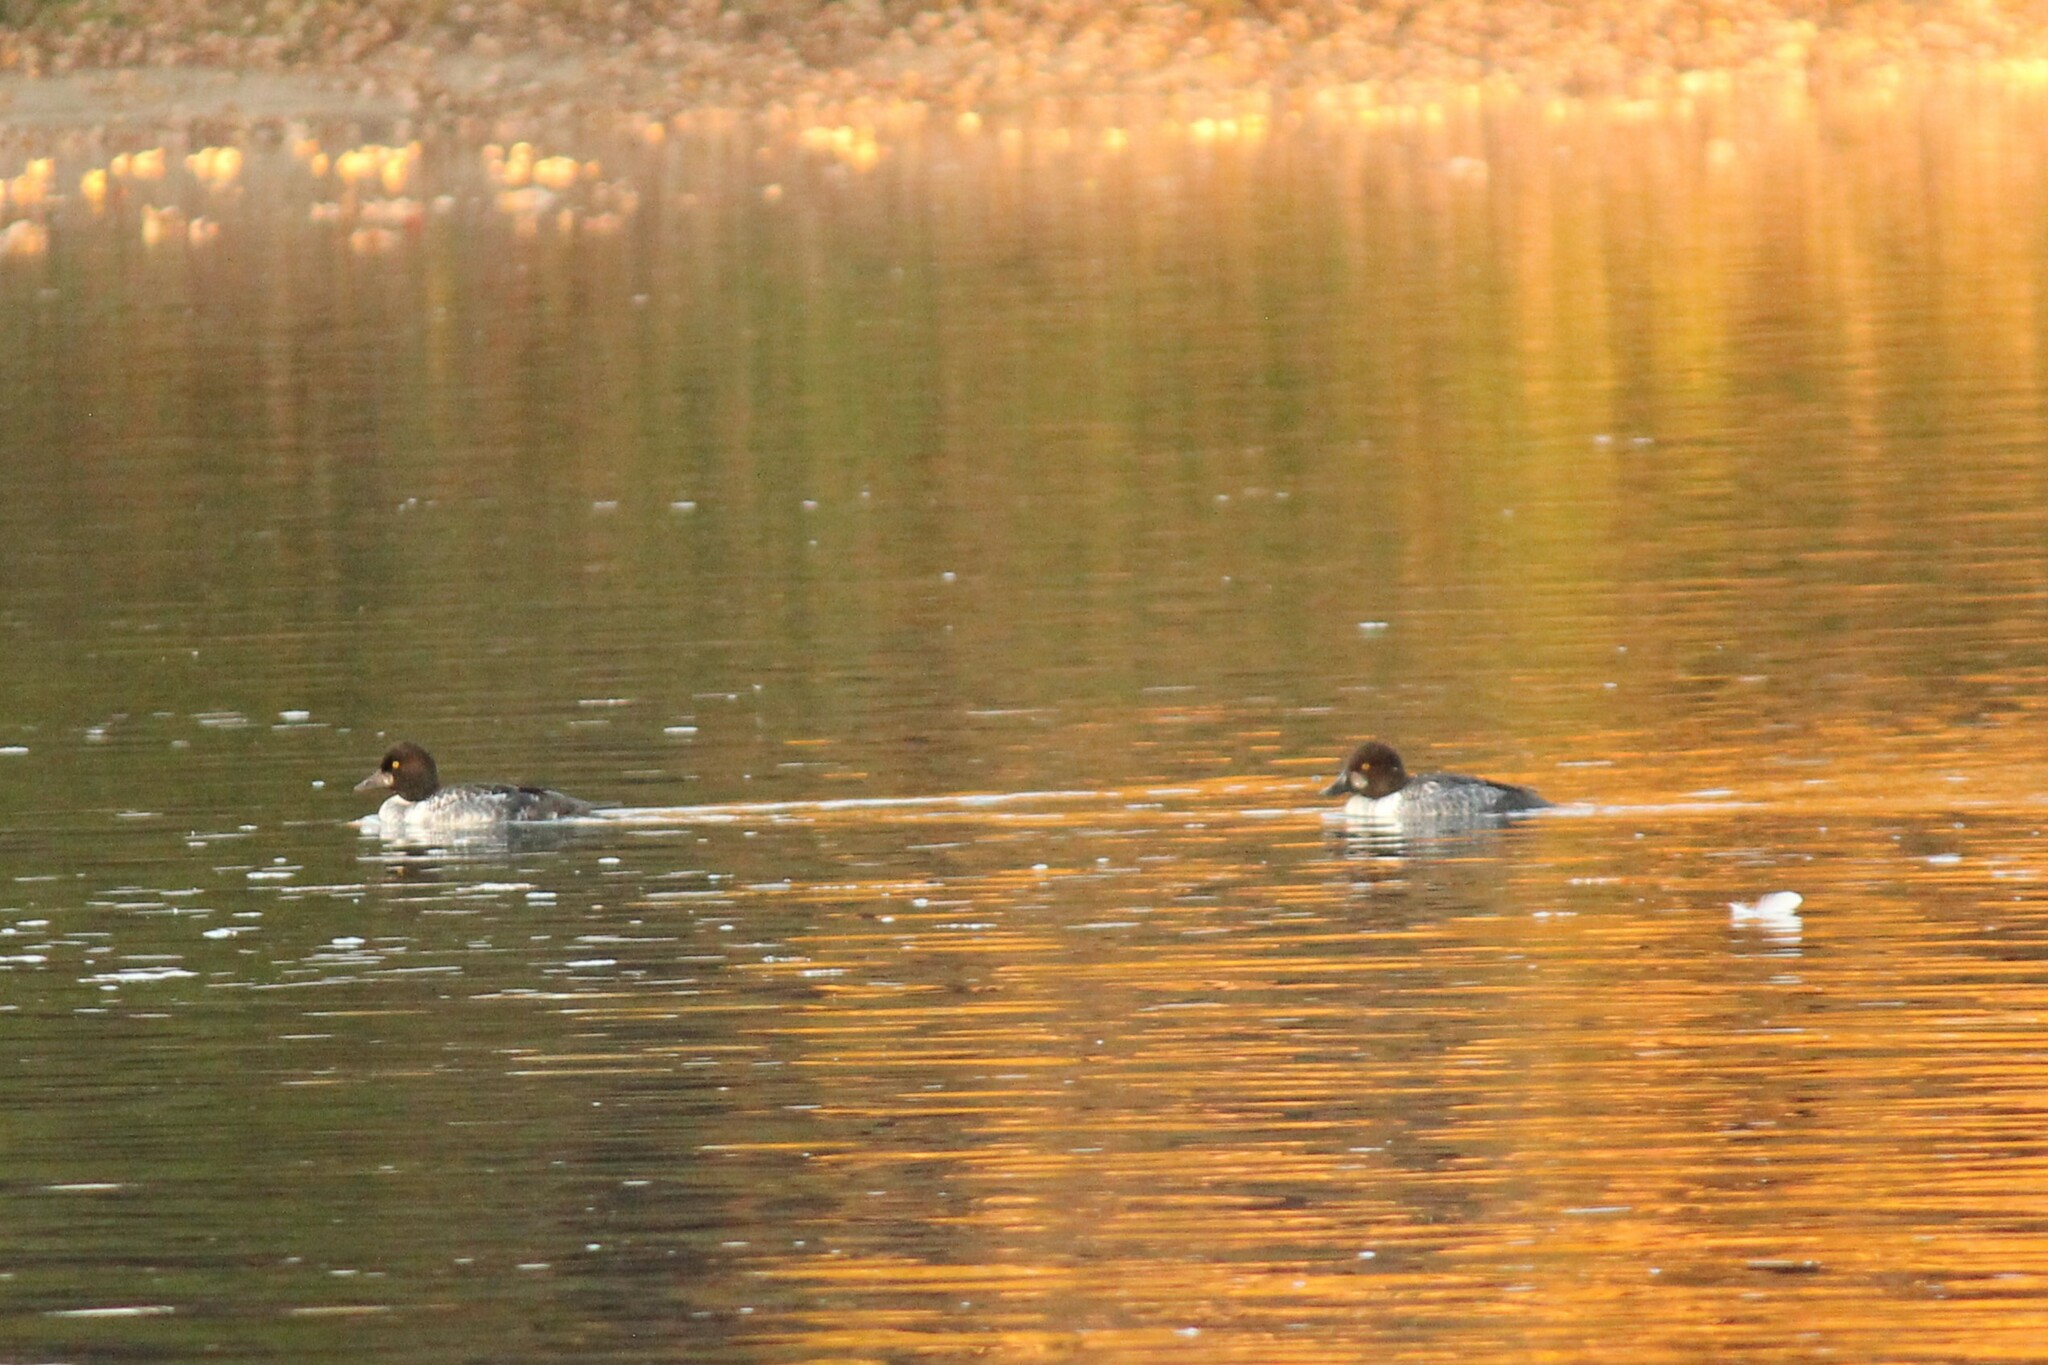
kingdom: Animalia
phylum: Chordata
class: Aves
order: Anseriformes
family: Anatidae
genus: Bucephala
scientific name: Bucephala clangula
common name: Common goldeneye
